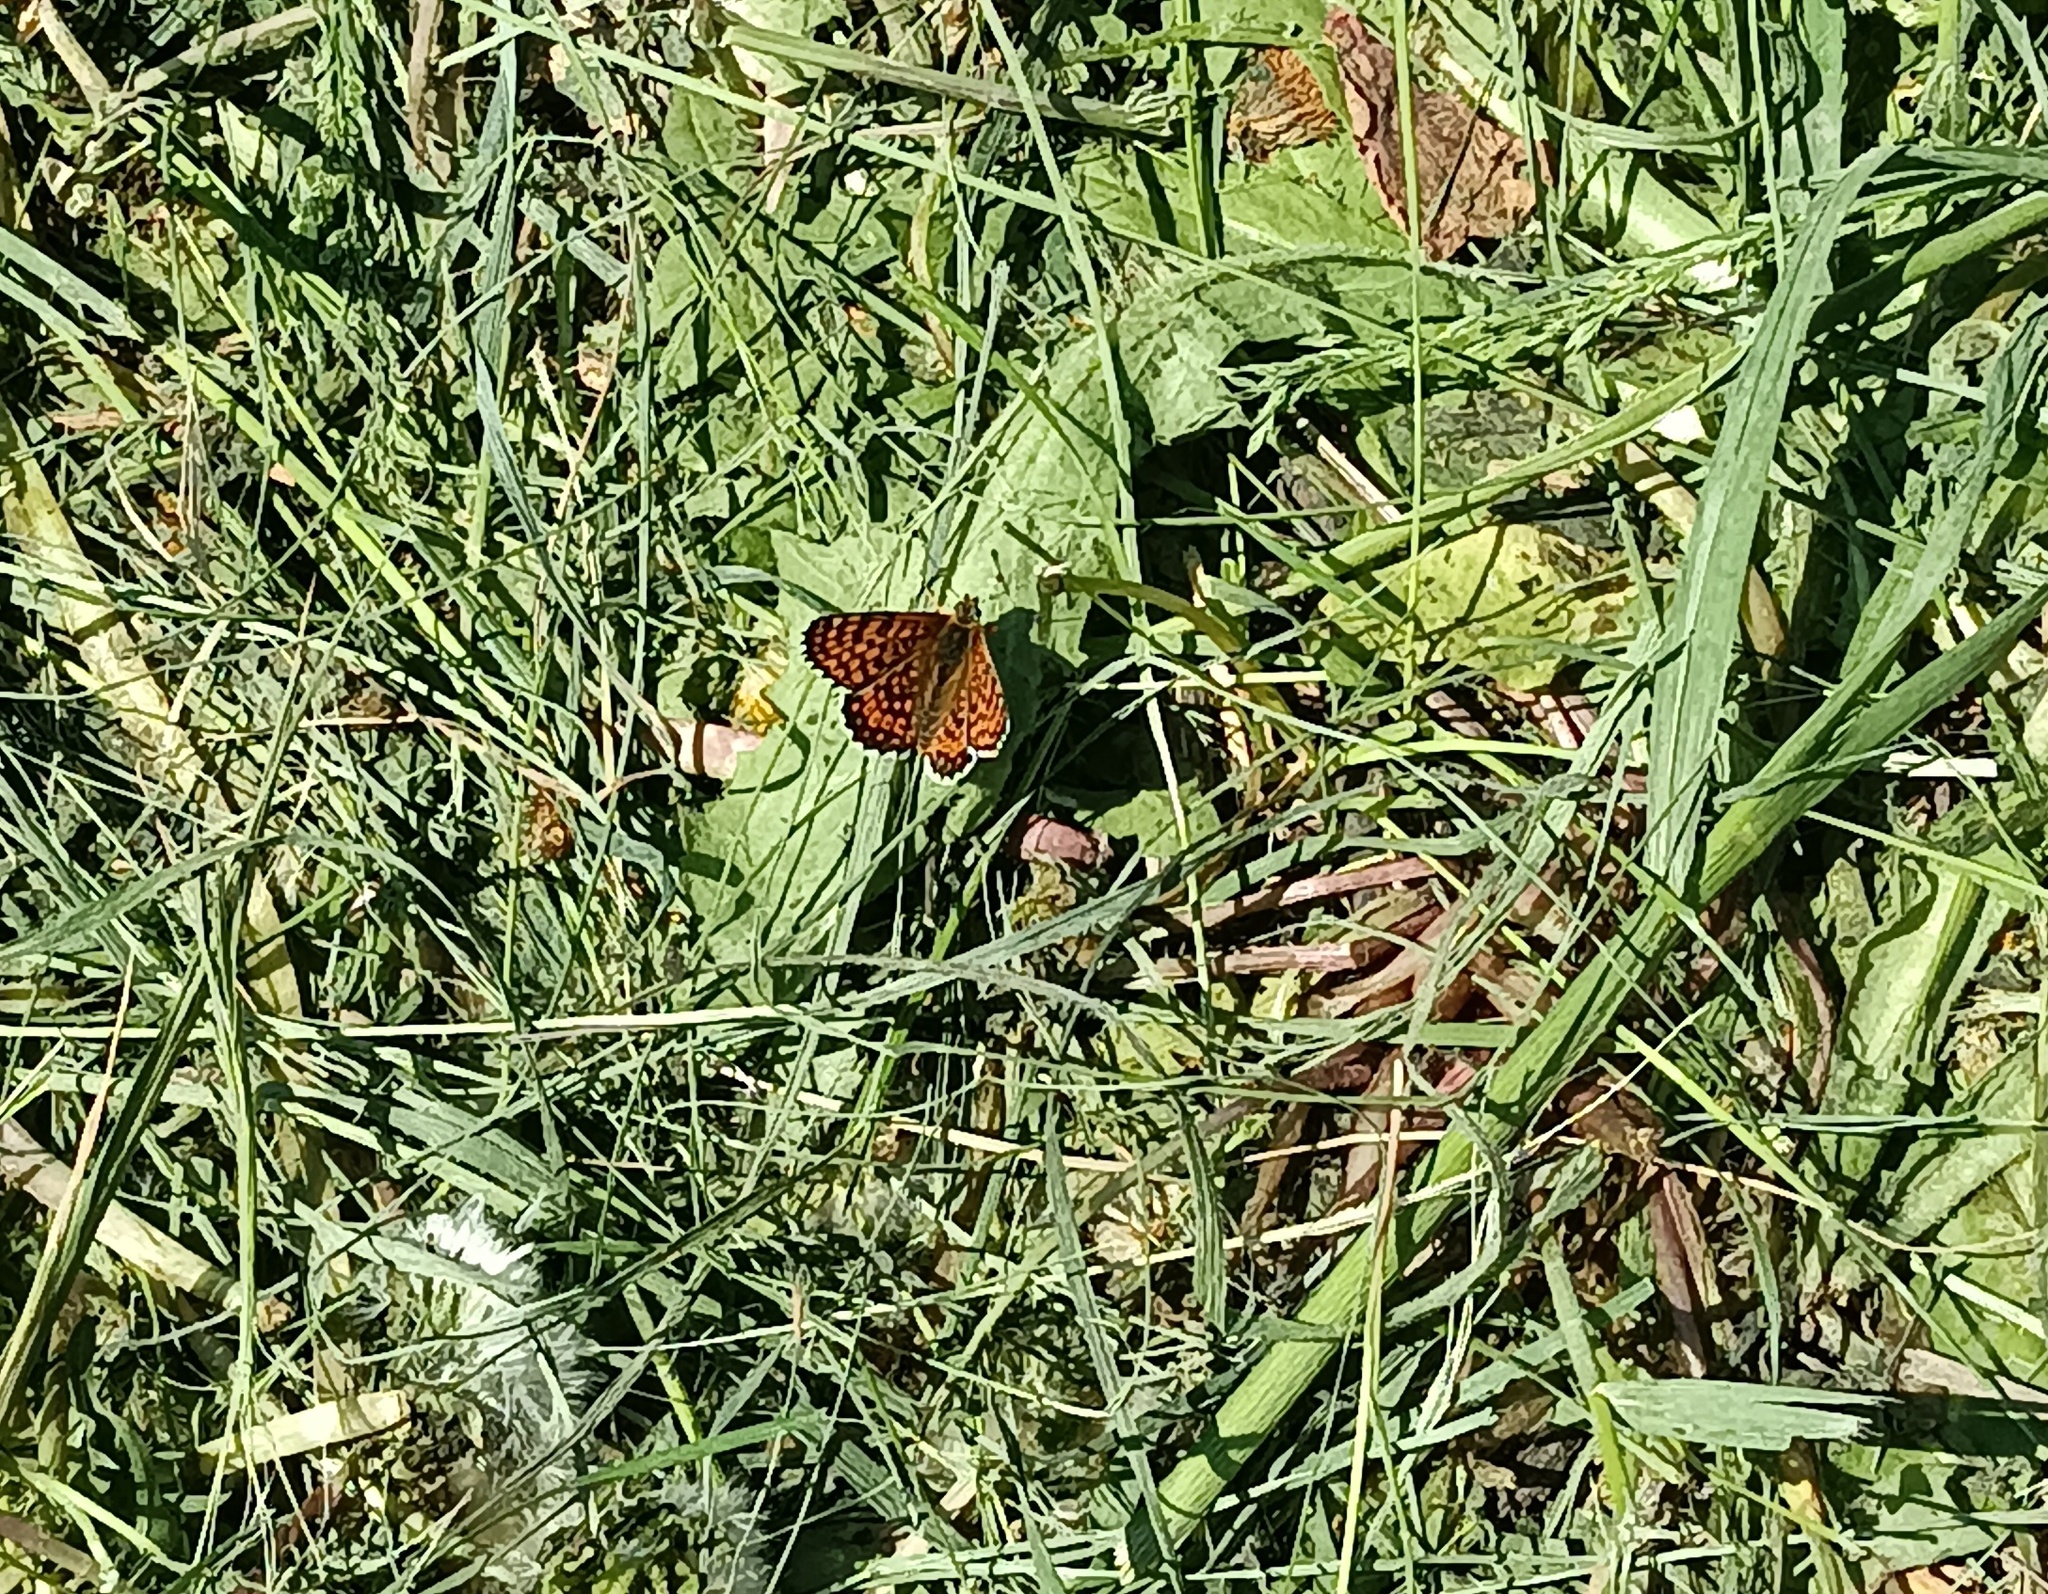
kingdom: Animalia
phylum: Arthropoda
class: Insecta
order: Lepidoptera
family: Nymphalidae
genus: Melitaea
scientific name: Melitaea cinxia
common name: Glanville fritillary
